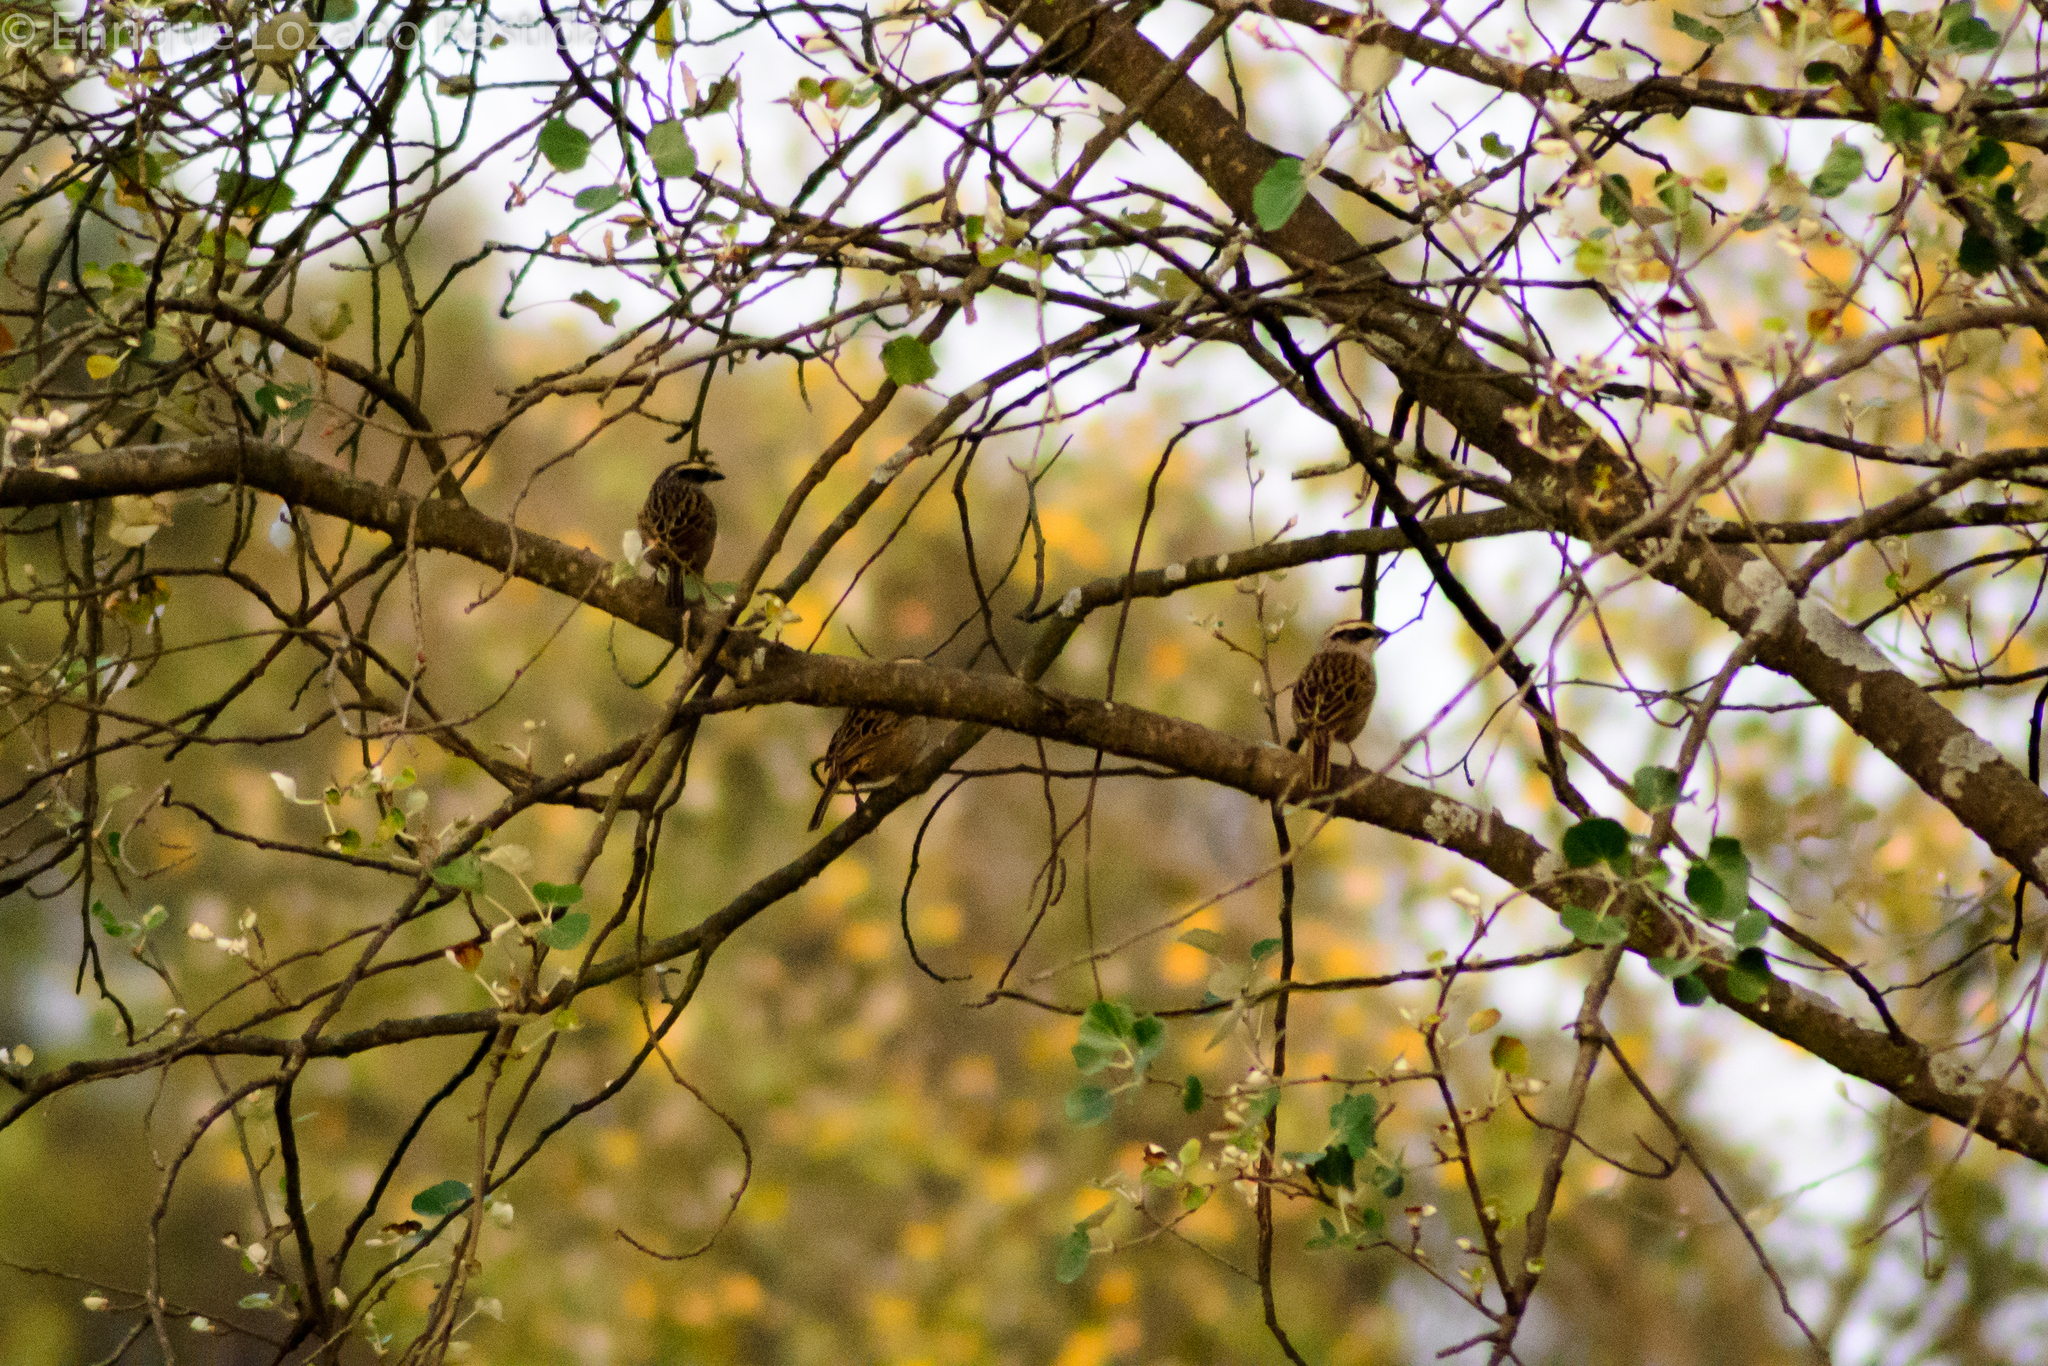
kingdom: Animalia
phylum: Chordata
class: Aves
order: Passeriformes
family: Passerellidae
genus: Oriturus
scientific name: Oriturus superciliosus
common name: Striped sparrow
